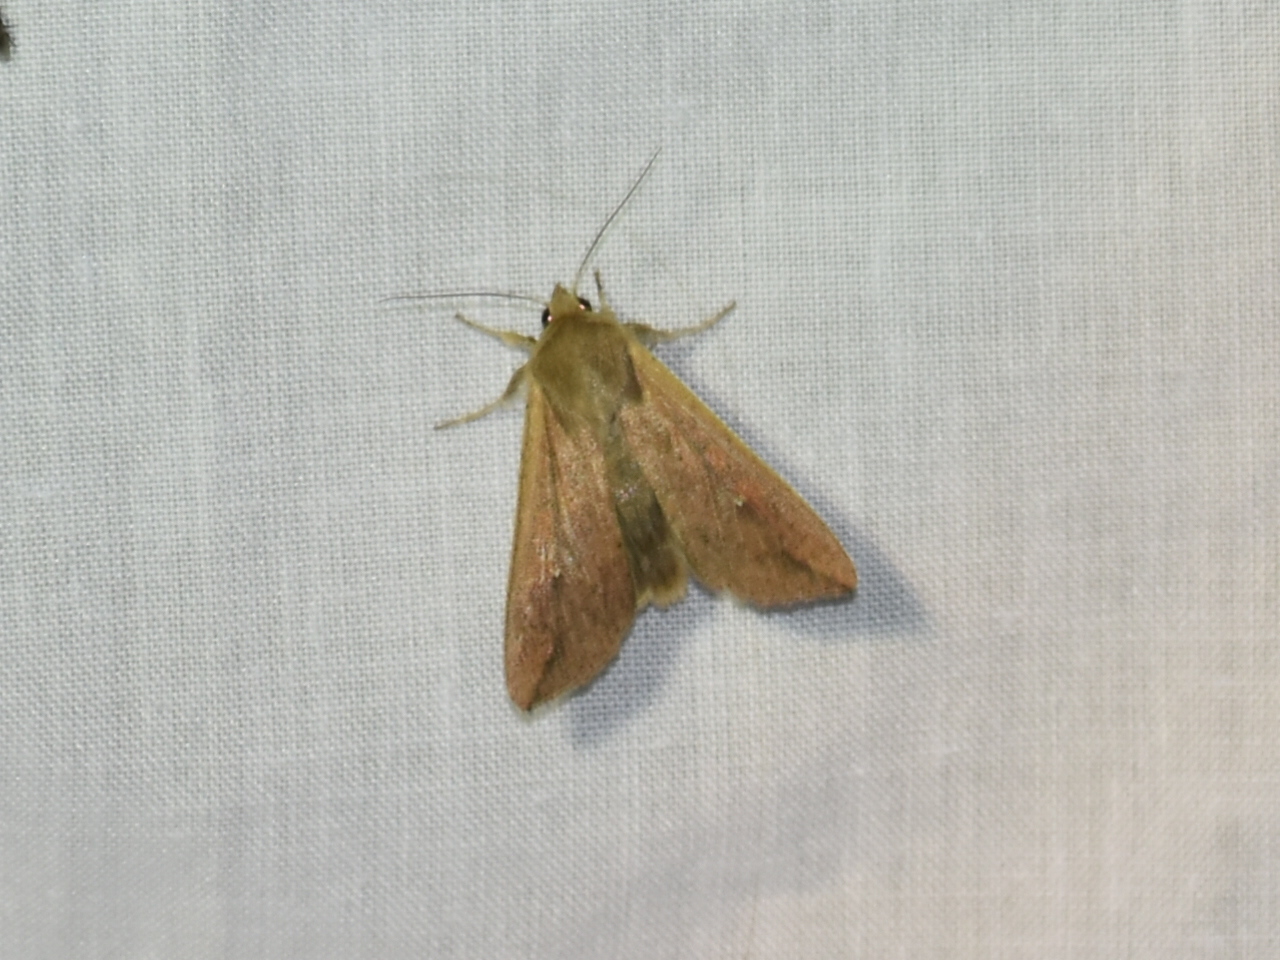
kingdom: Animalia
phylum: Arthropoda
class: Insecta
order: Lepidoptera
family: Noctuidae
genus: Mythimna
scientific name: Mythimna unipuncta
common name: White-speck
